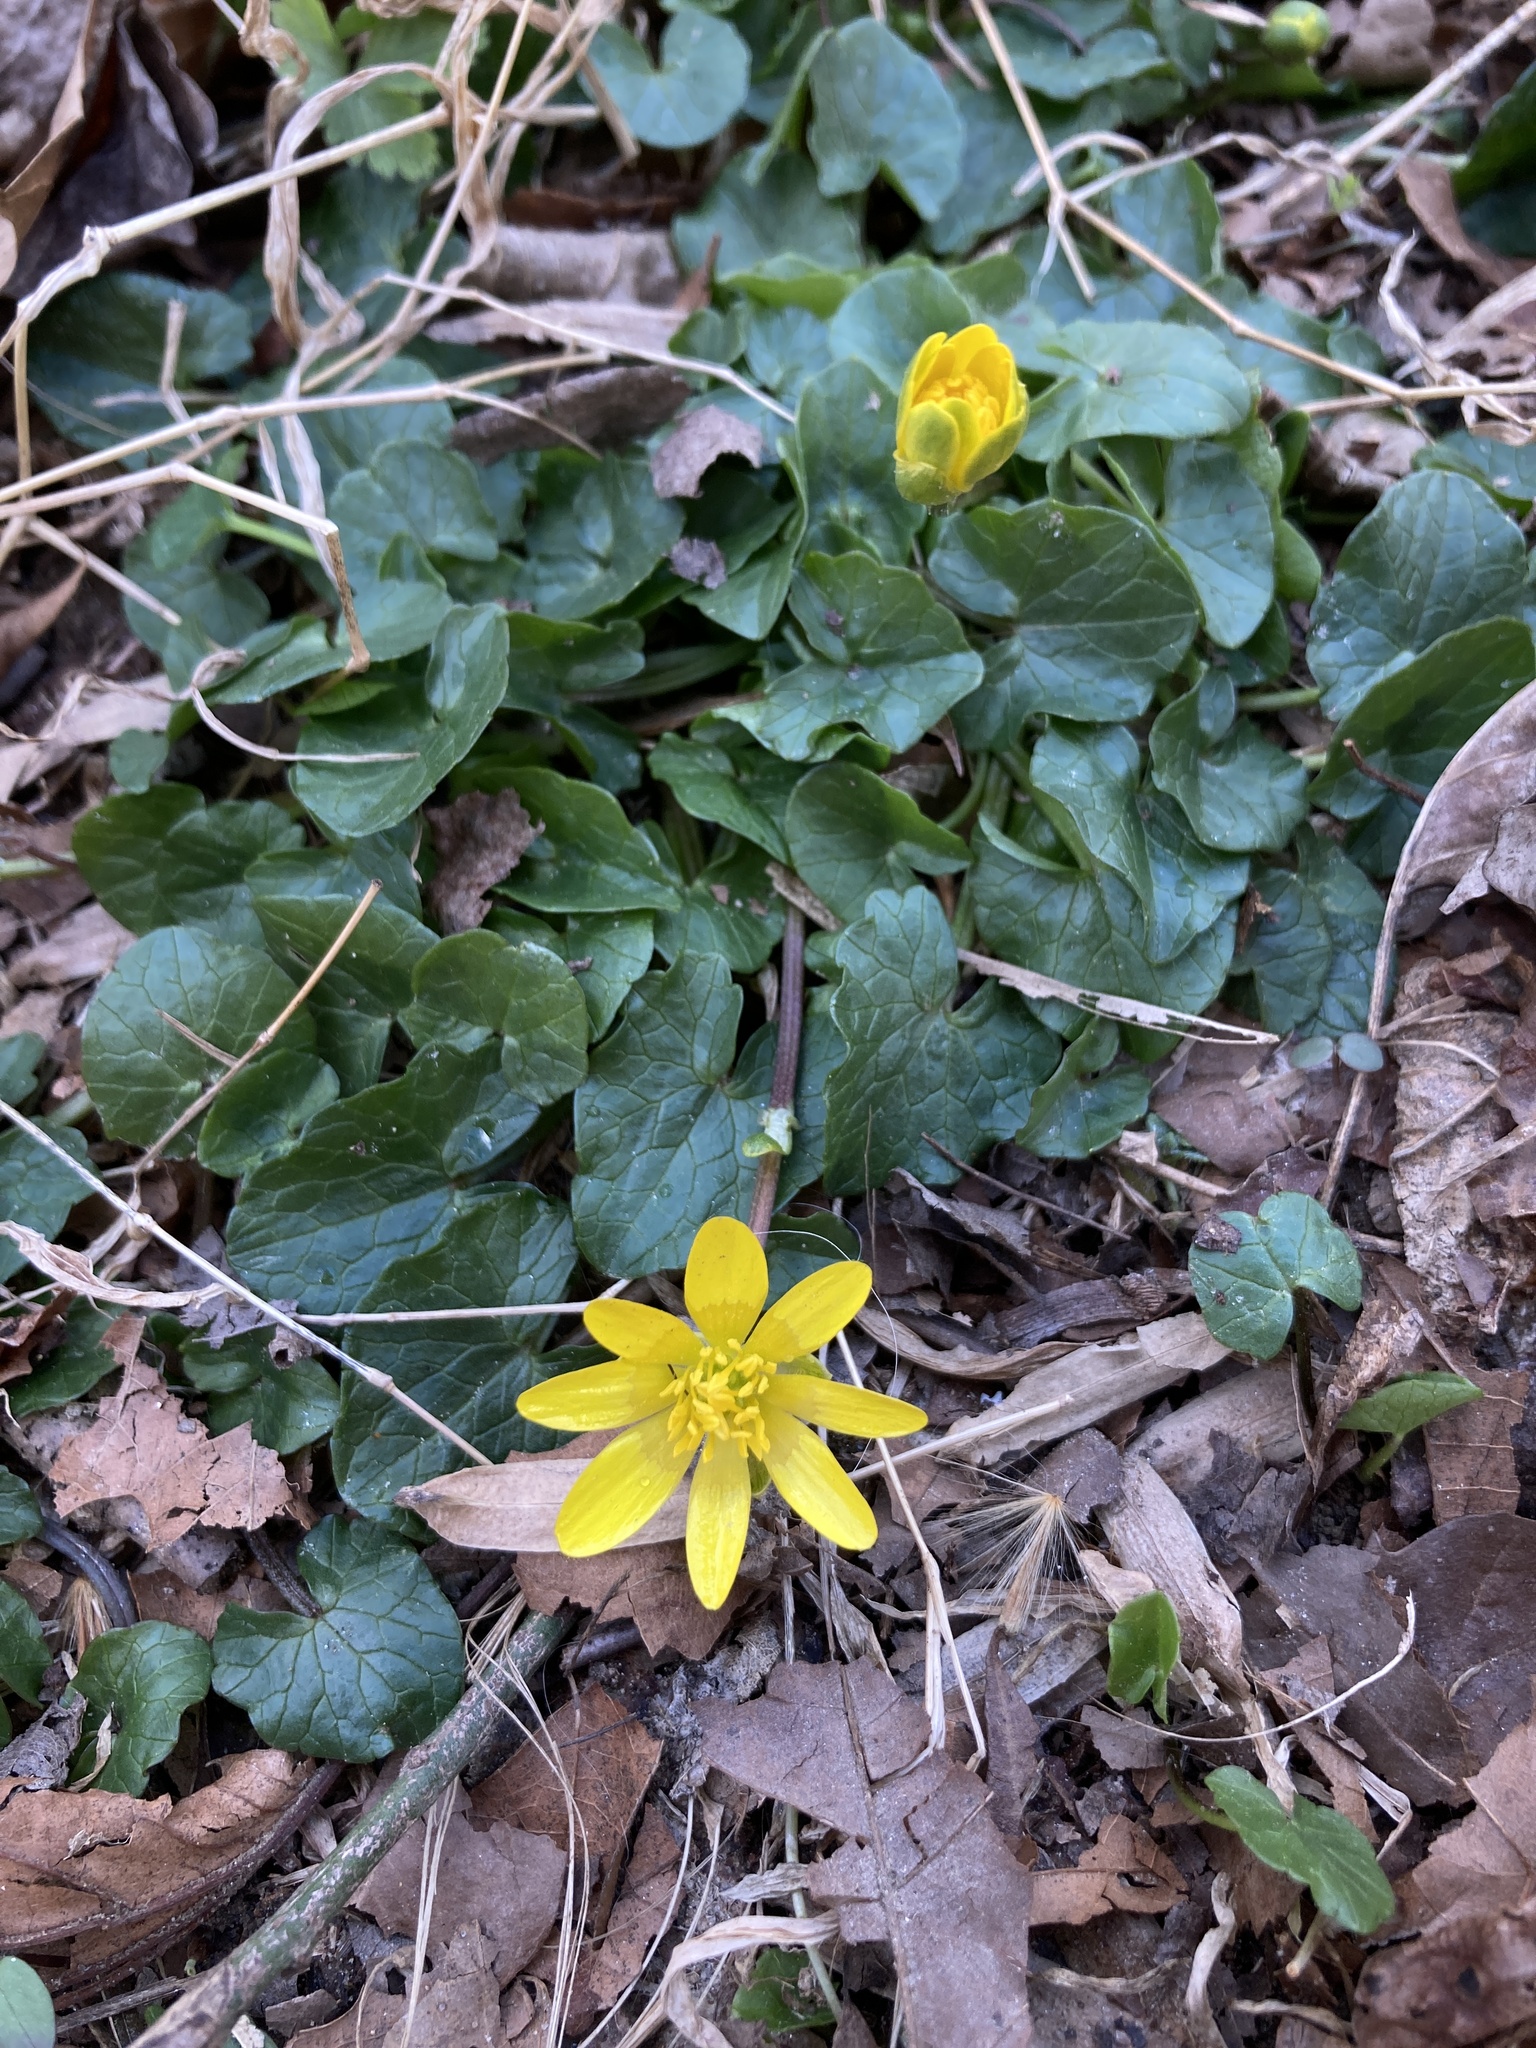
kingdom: Plantae
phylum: Tracheophyta
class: Magnoliopsida
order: Ranunculales
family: Ranunculaceae
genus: Ficaria
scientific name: Ficaria verna
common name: Lesser celandine
